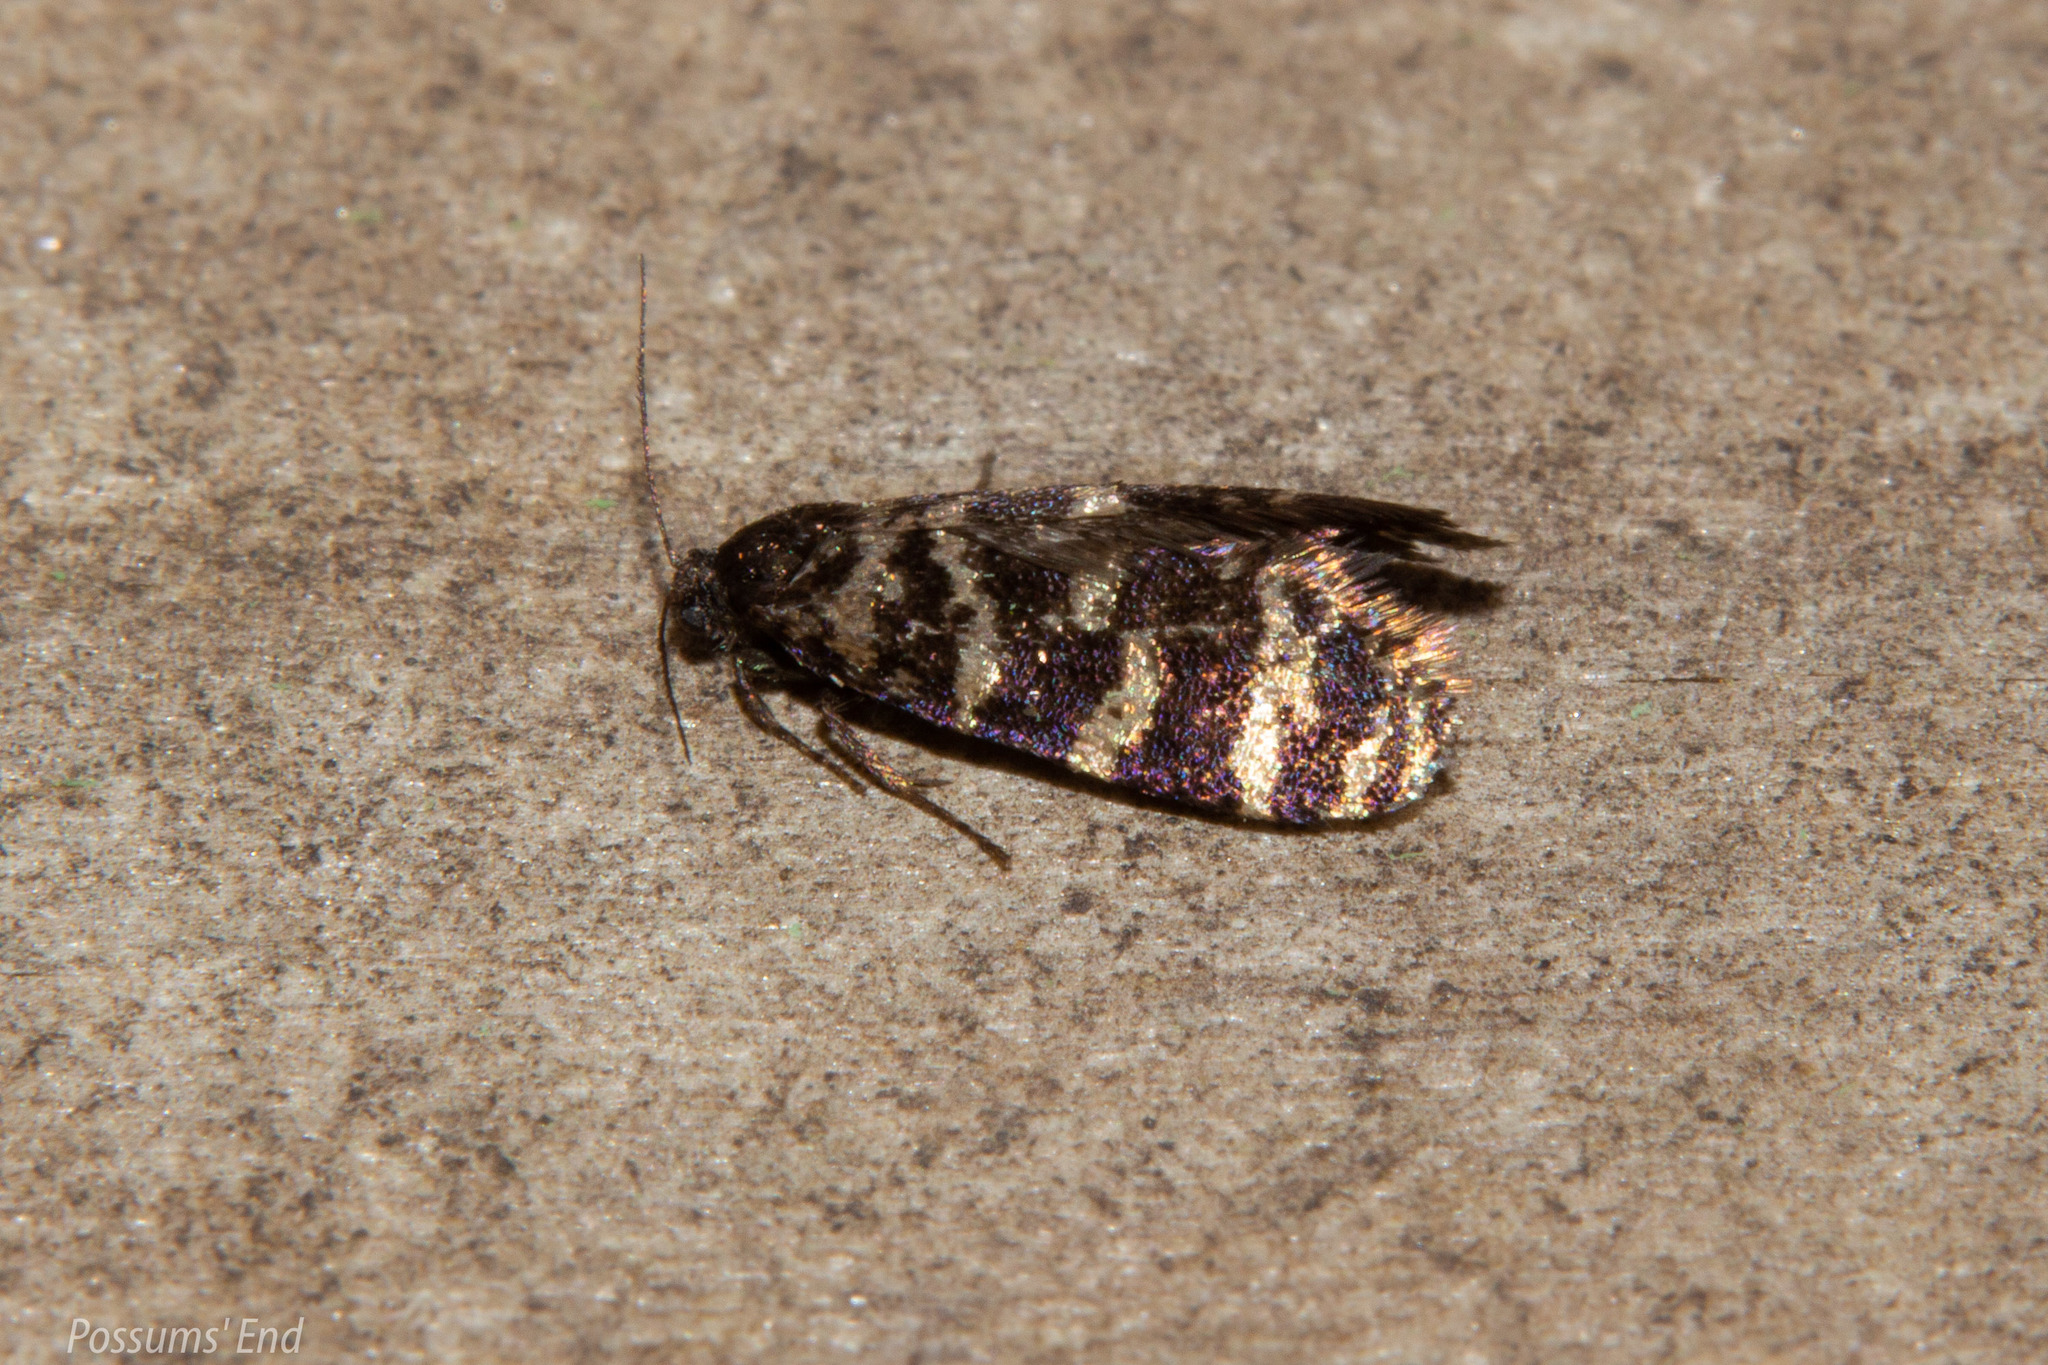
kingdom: Animalia
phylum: Arthropoda
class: Insecta
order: Lepidoptera
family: Psychidae
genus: Mallobathra
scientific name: Mallobathra memotuina
